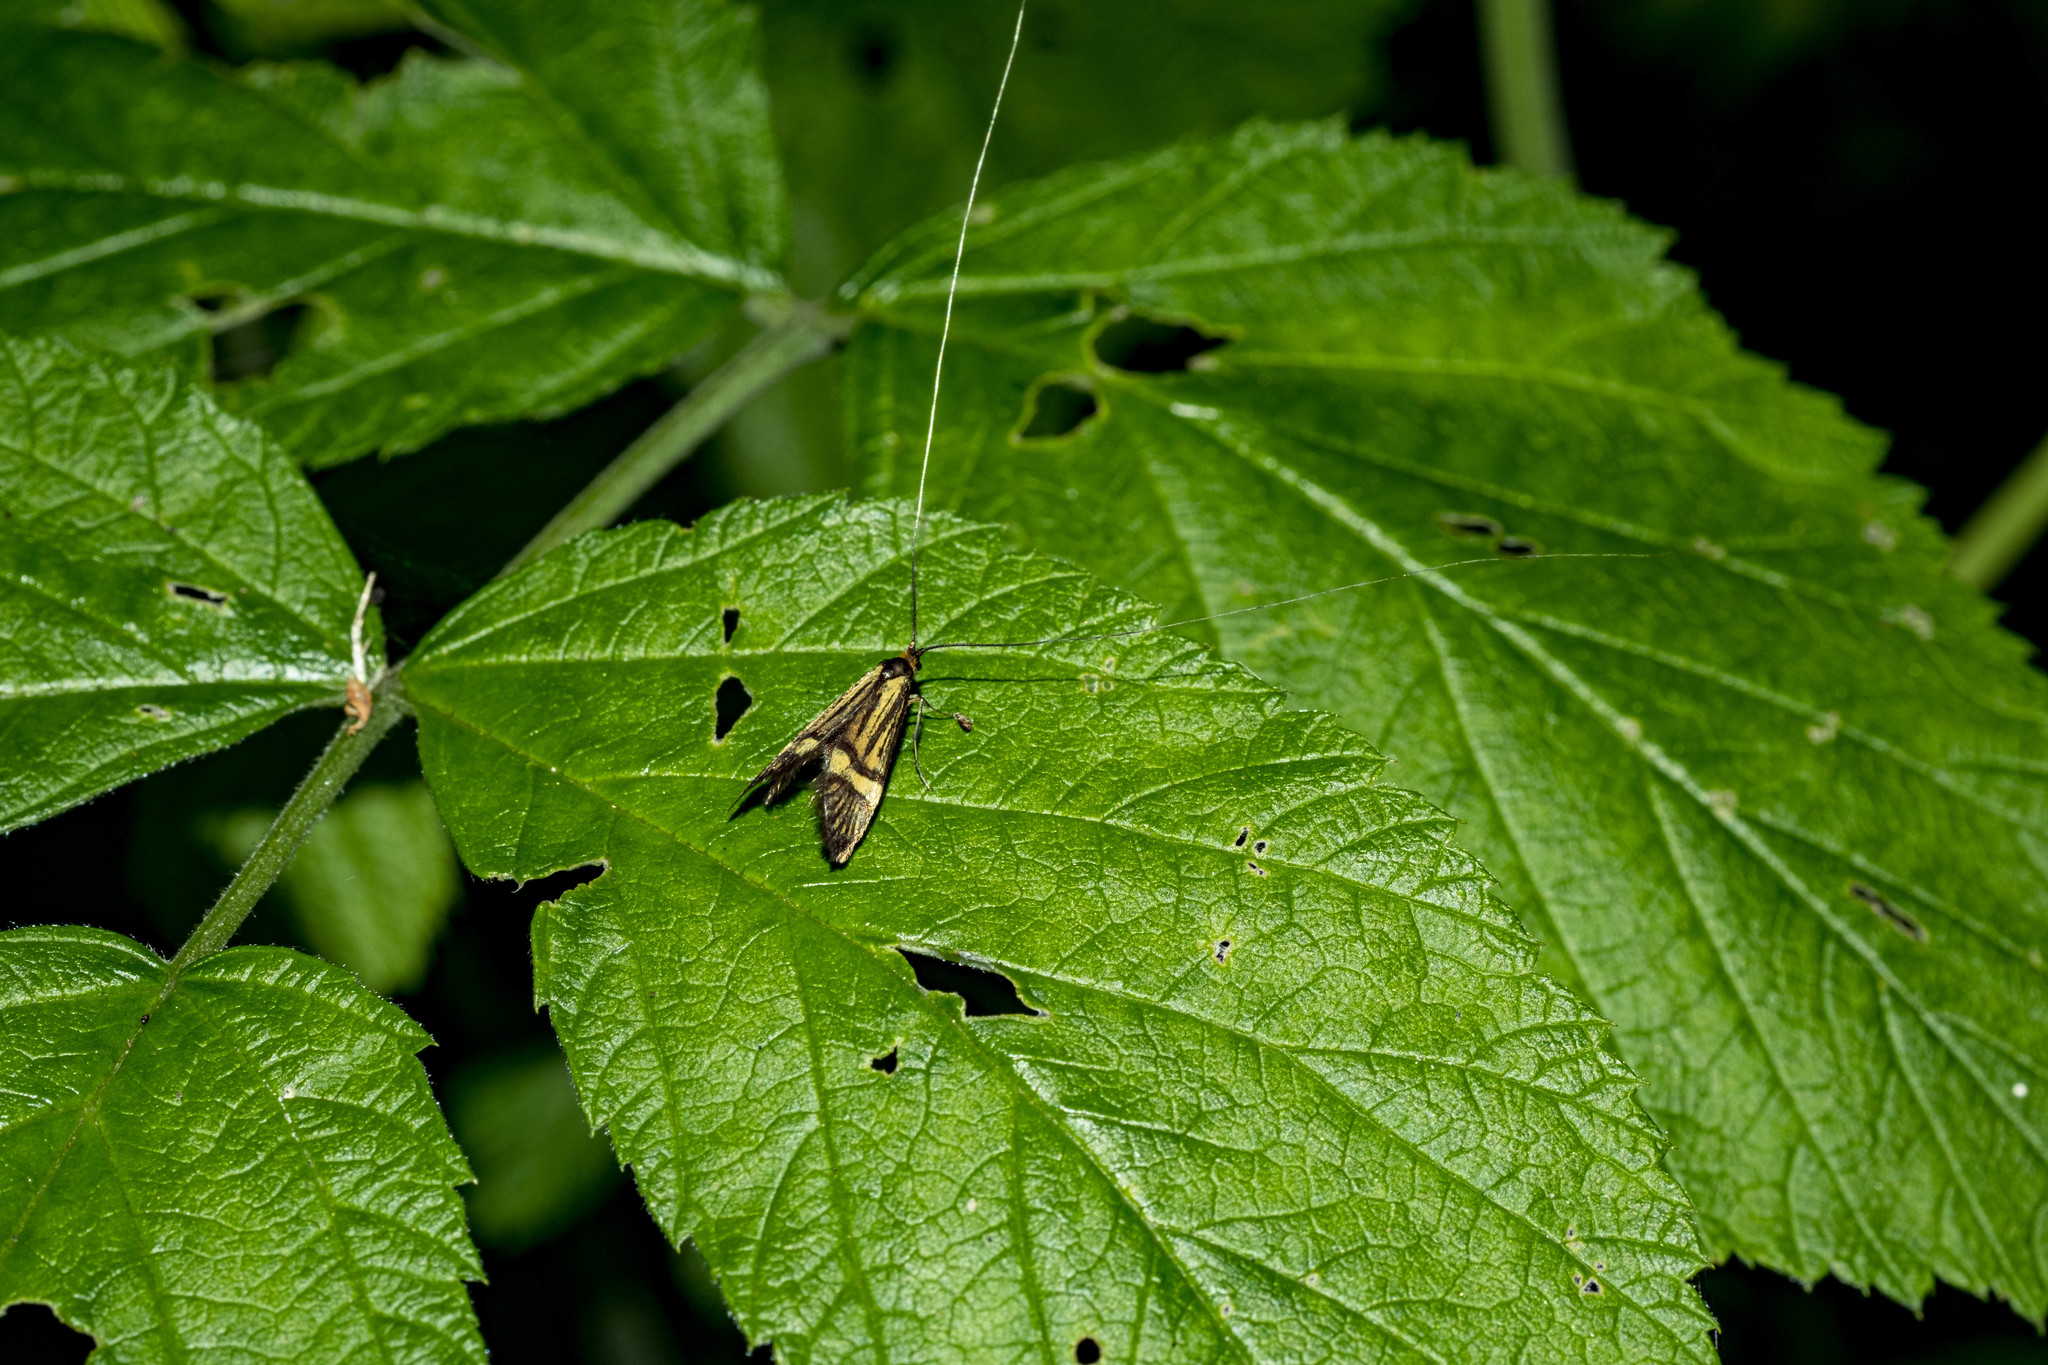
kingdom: Animalia
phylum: Arthropoda
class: Insecta
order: Lepidoptera
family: Adelidae
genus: Nemophora
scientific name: Nemophora degeerella
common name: Yellow-barred long-horn
